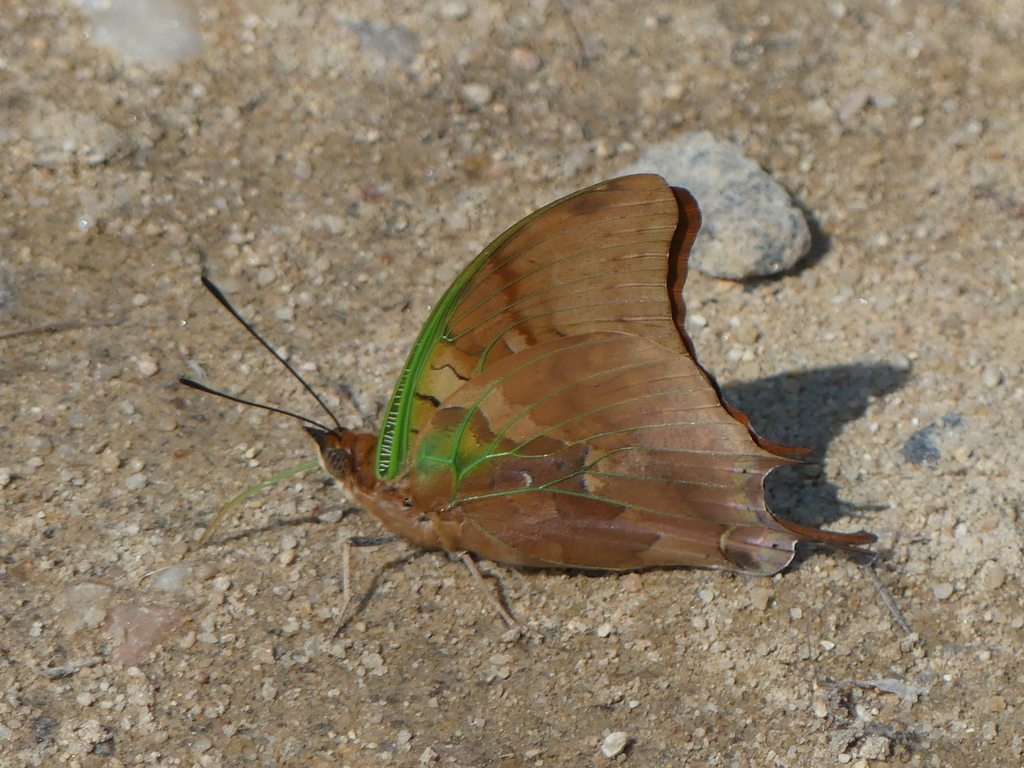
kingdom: Animalia
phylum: Arthropoda
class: Insecta
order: Lepidoptera
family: Nymphalidae
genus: Charaxes
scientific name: Charaxes candiope
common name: Green-veined charaxes
